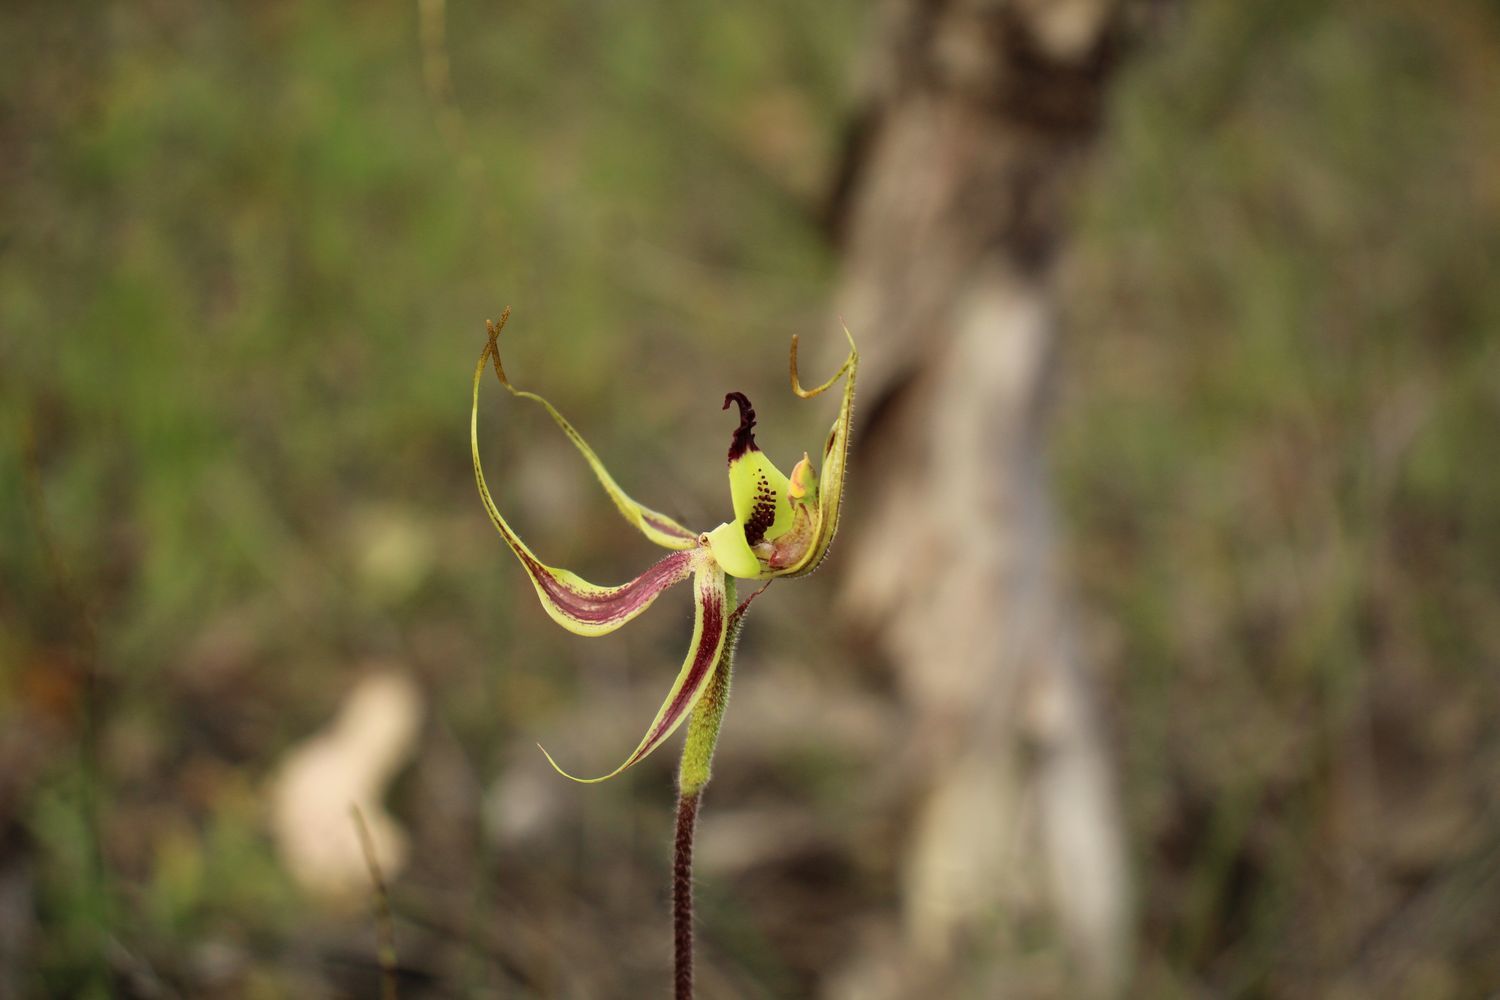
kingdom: Plantae
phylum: Tracheophyta
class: Liliopsida
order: Asparagales
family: Orchidaceae
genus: Caladenia
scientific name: Caladenia integra
